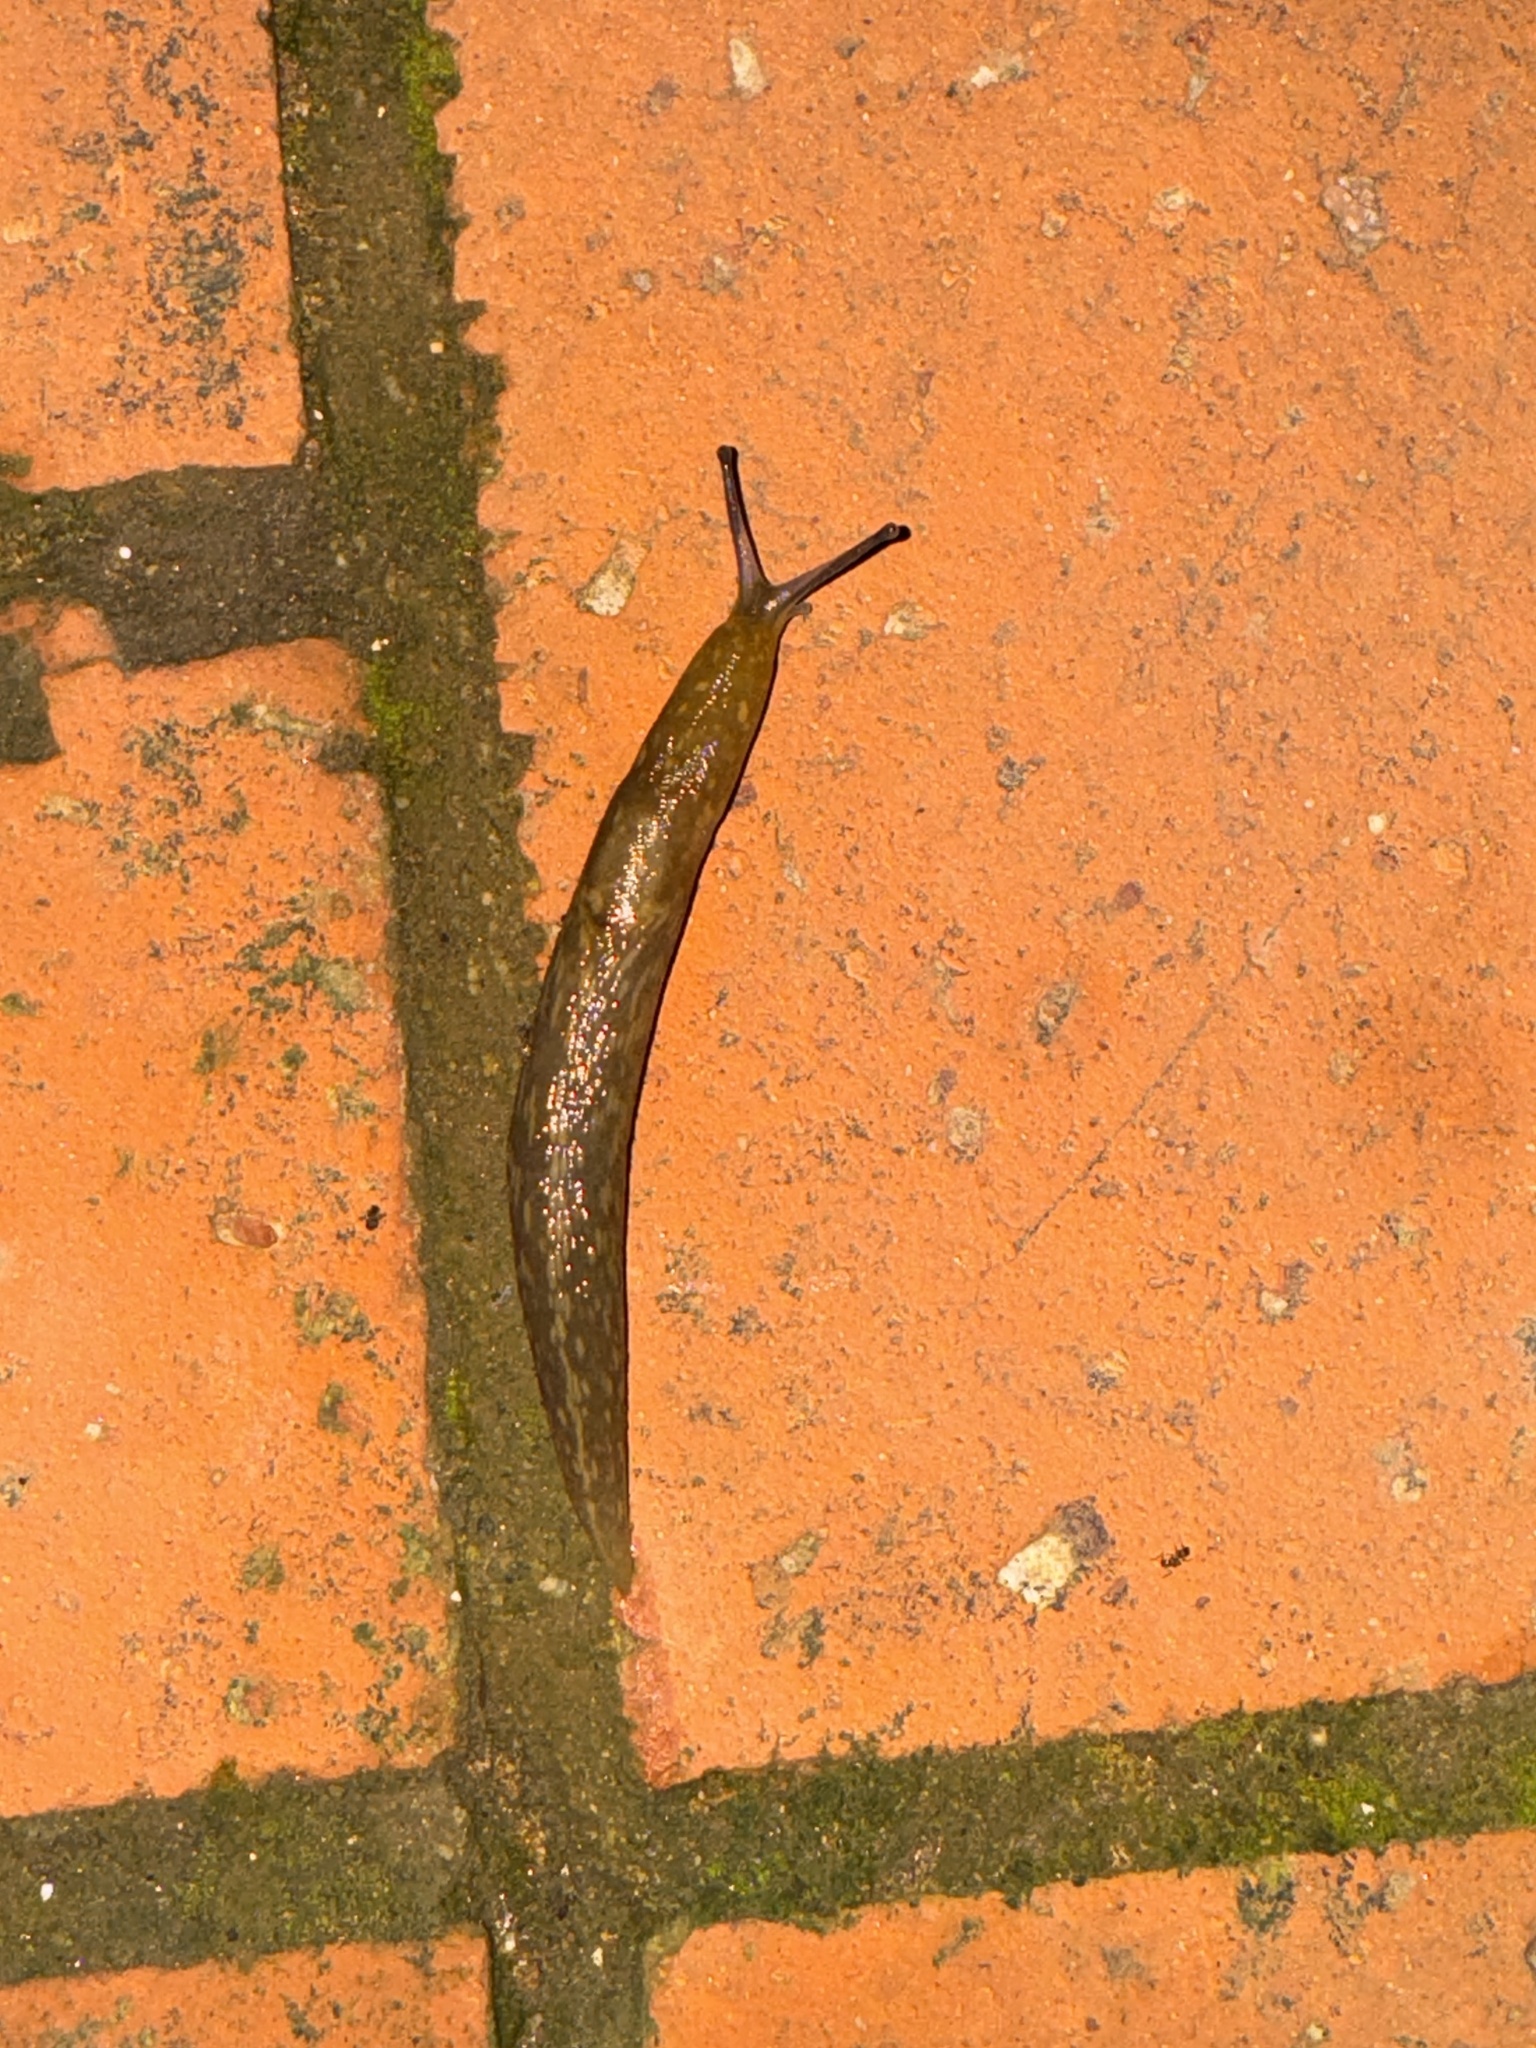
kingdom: Animalia
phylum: Mollusca
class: Gastropoda
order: Stylommatophora
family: Limacidae
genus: Limacus
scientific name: Limacus flavus
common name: Yellow gardenslug
